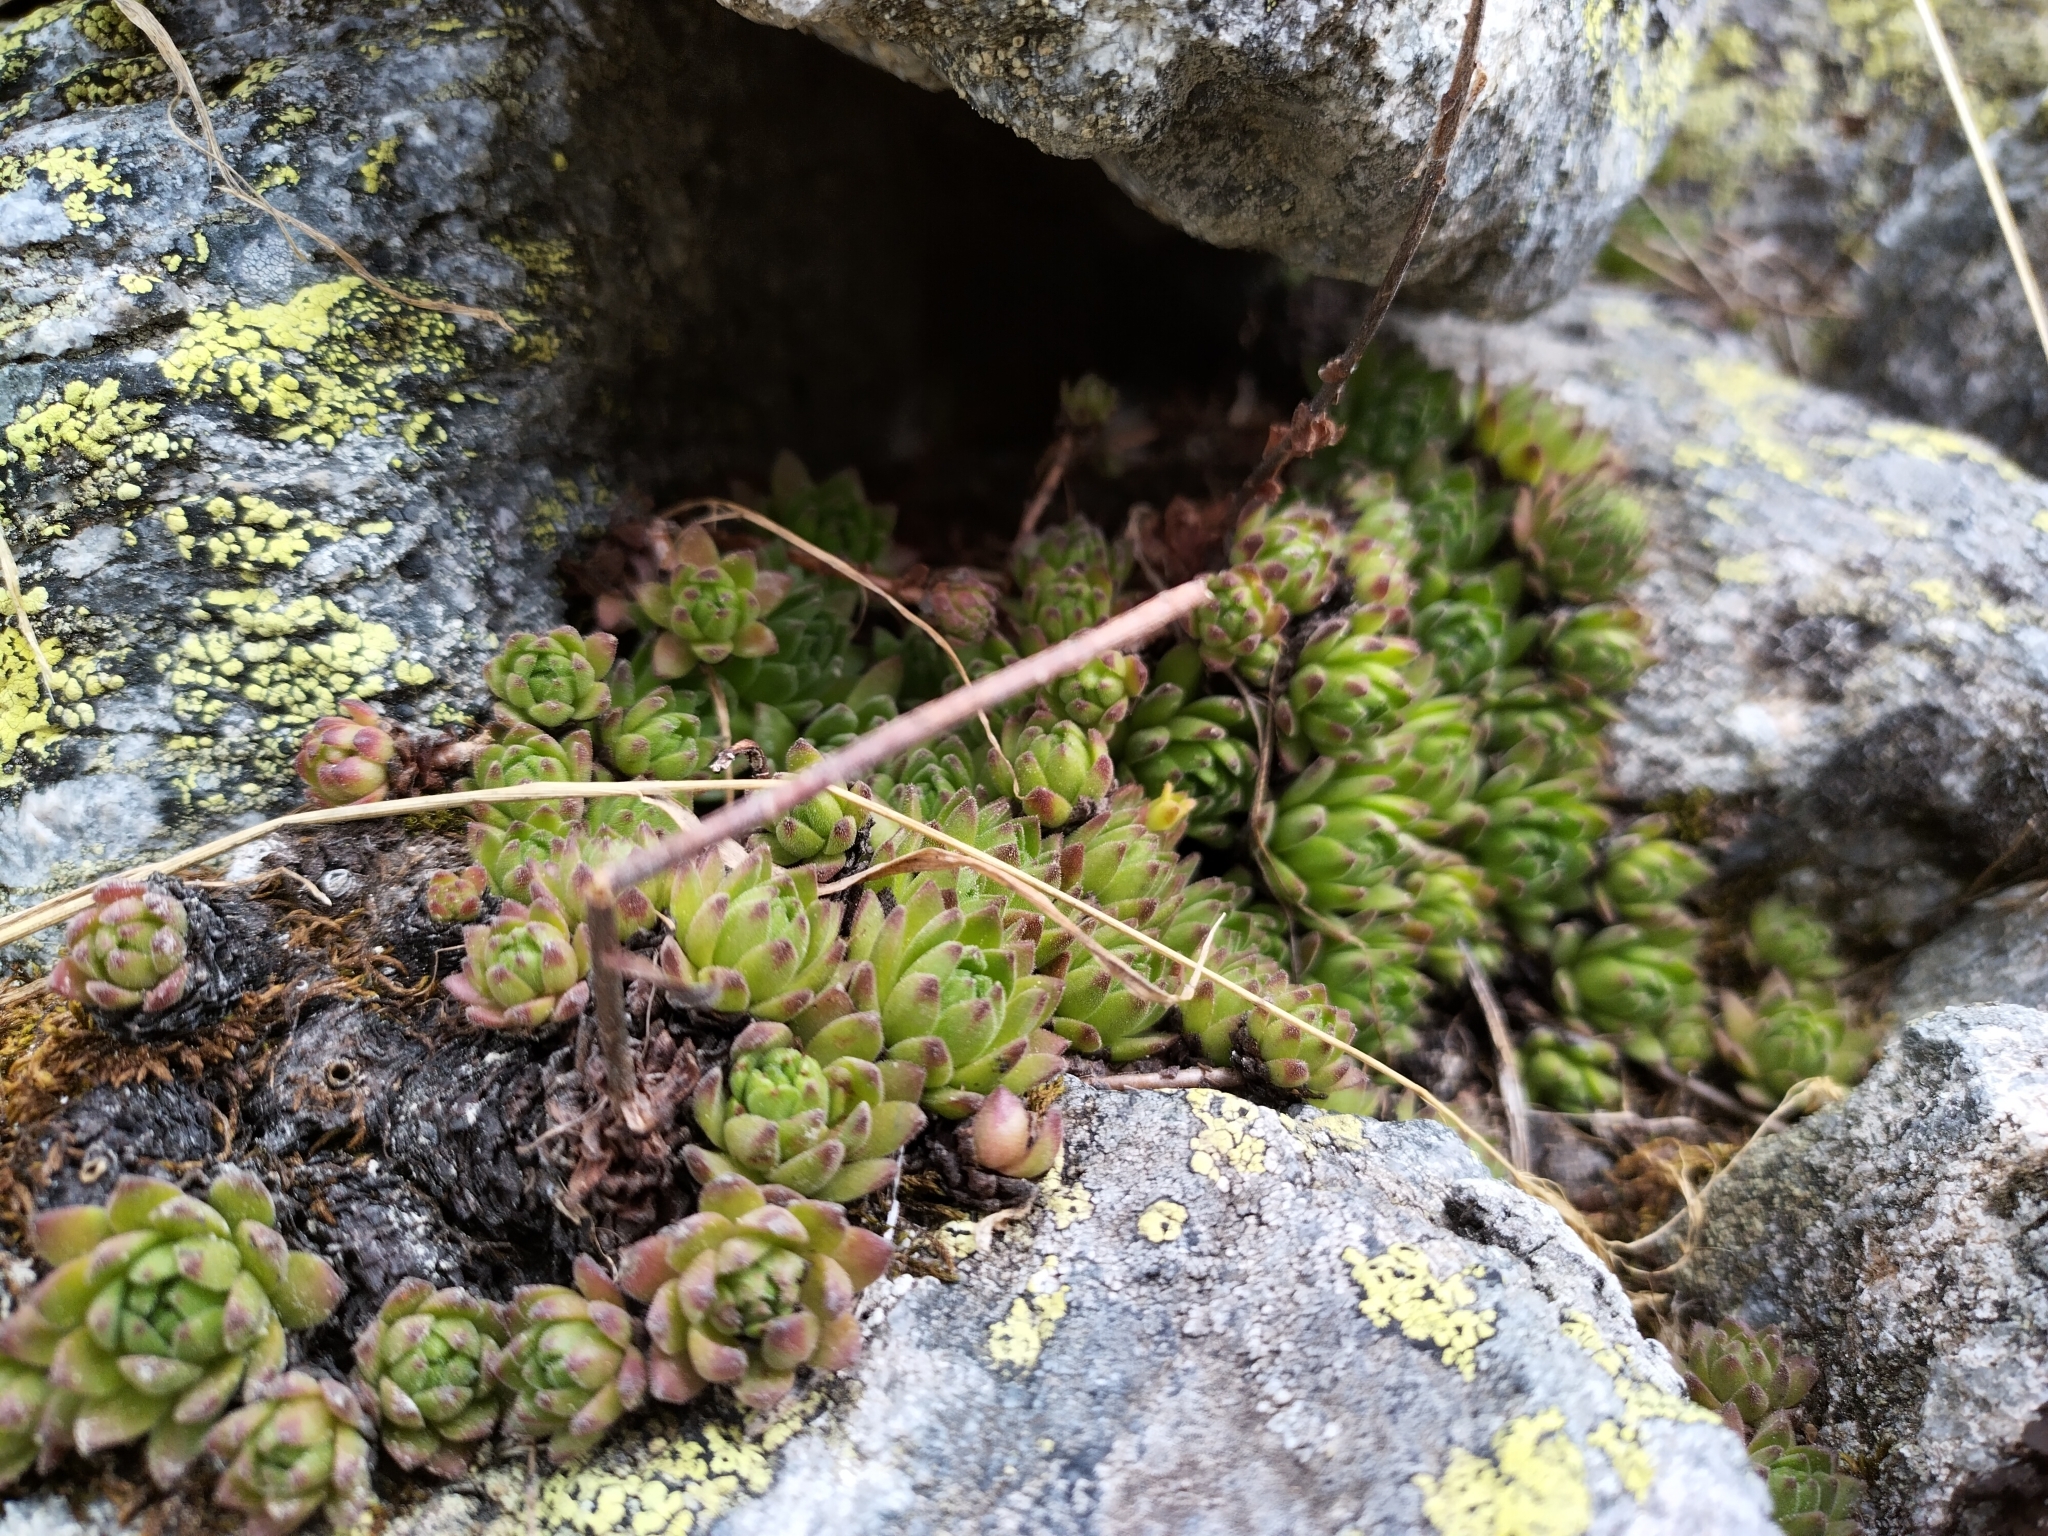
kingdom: Plantae
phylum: Tracheophyta
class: Magnoliopsida
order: Saxifragales
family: Crassulaceae
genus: Sempervivum
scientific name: Sempervivum montanum
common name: Mountain house-leek
